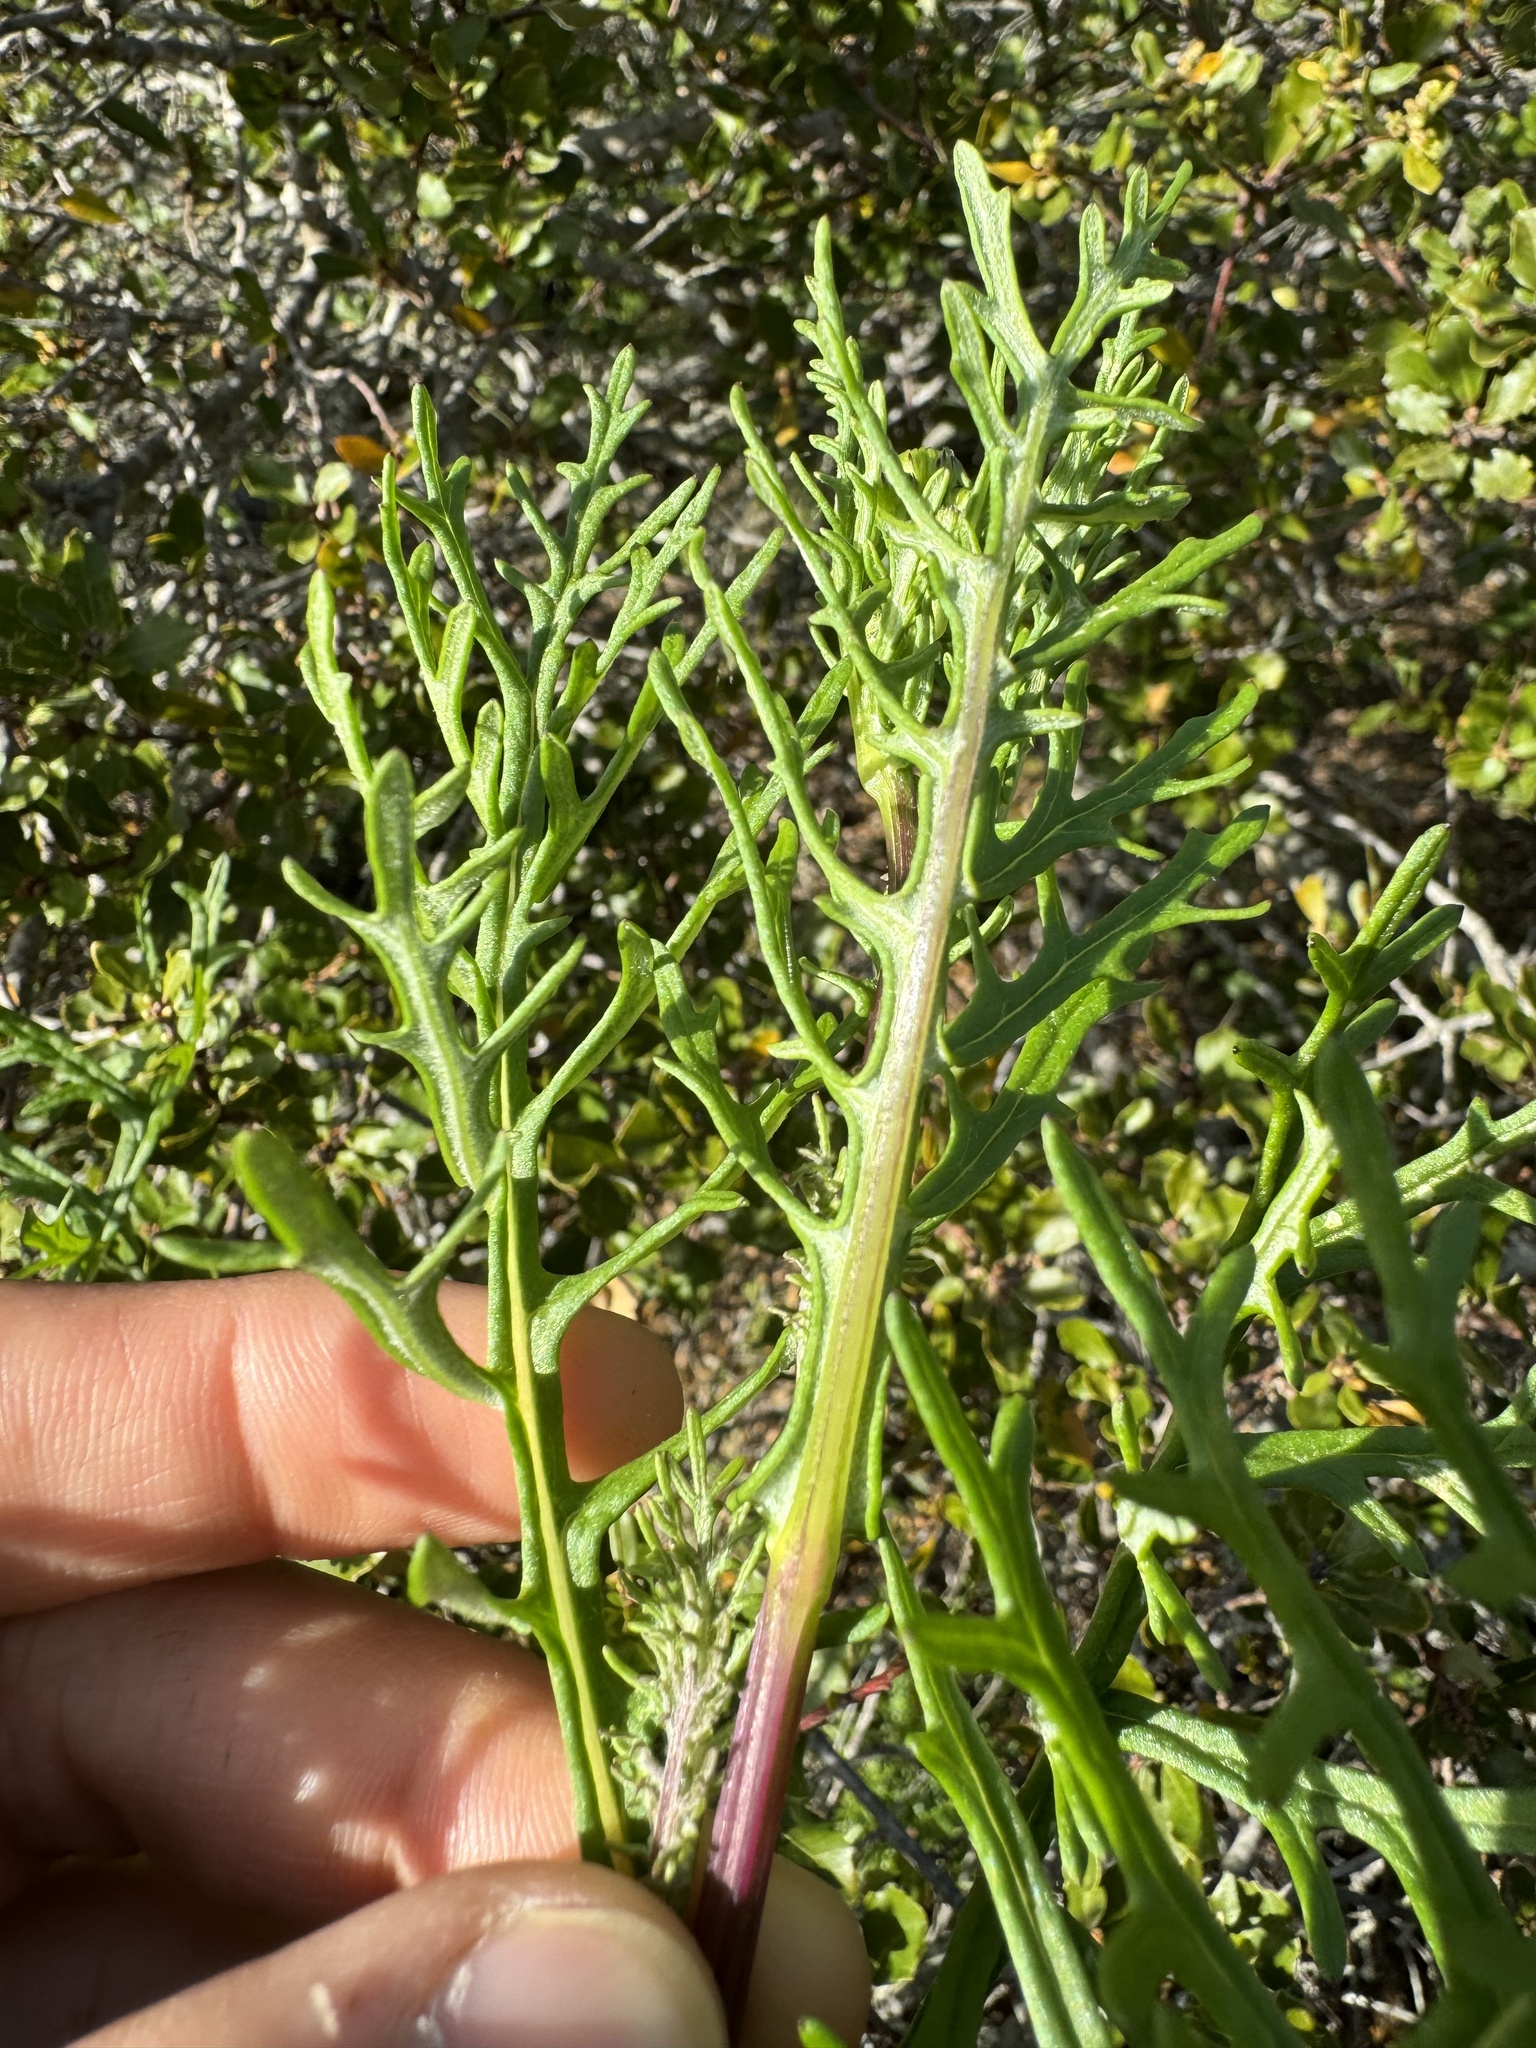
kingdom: Plantae
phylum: Tracheophyta
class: Magnoliopsida
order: Asterales
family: Asteraceae
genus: Senecio
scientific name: Senecio lyonii
